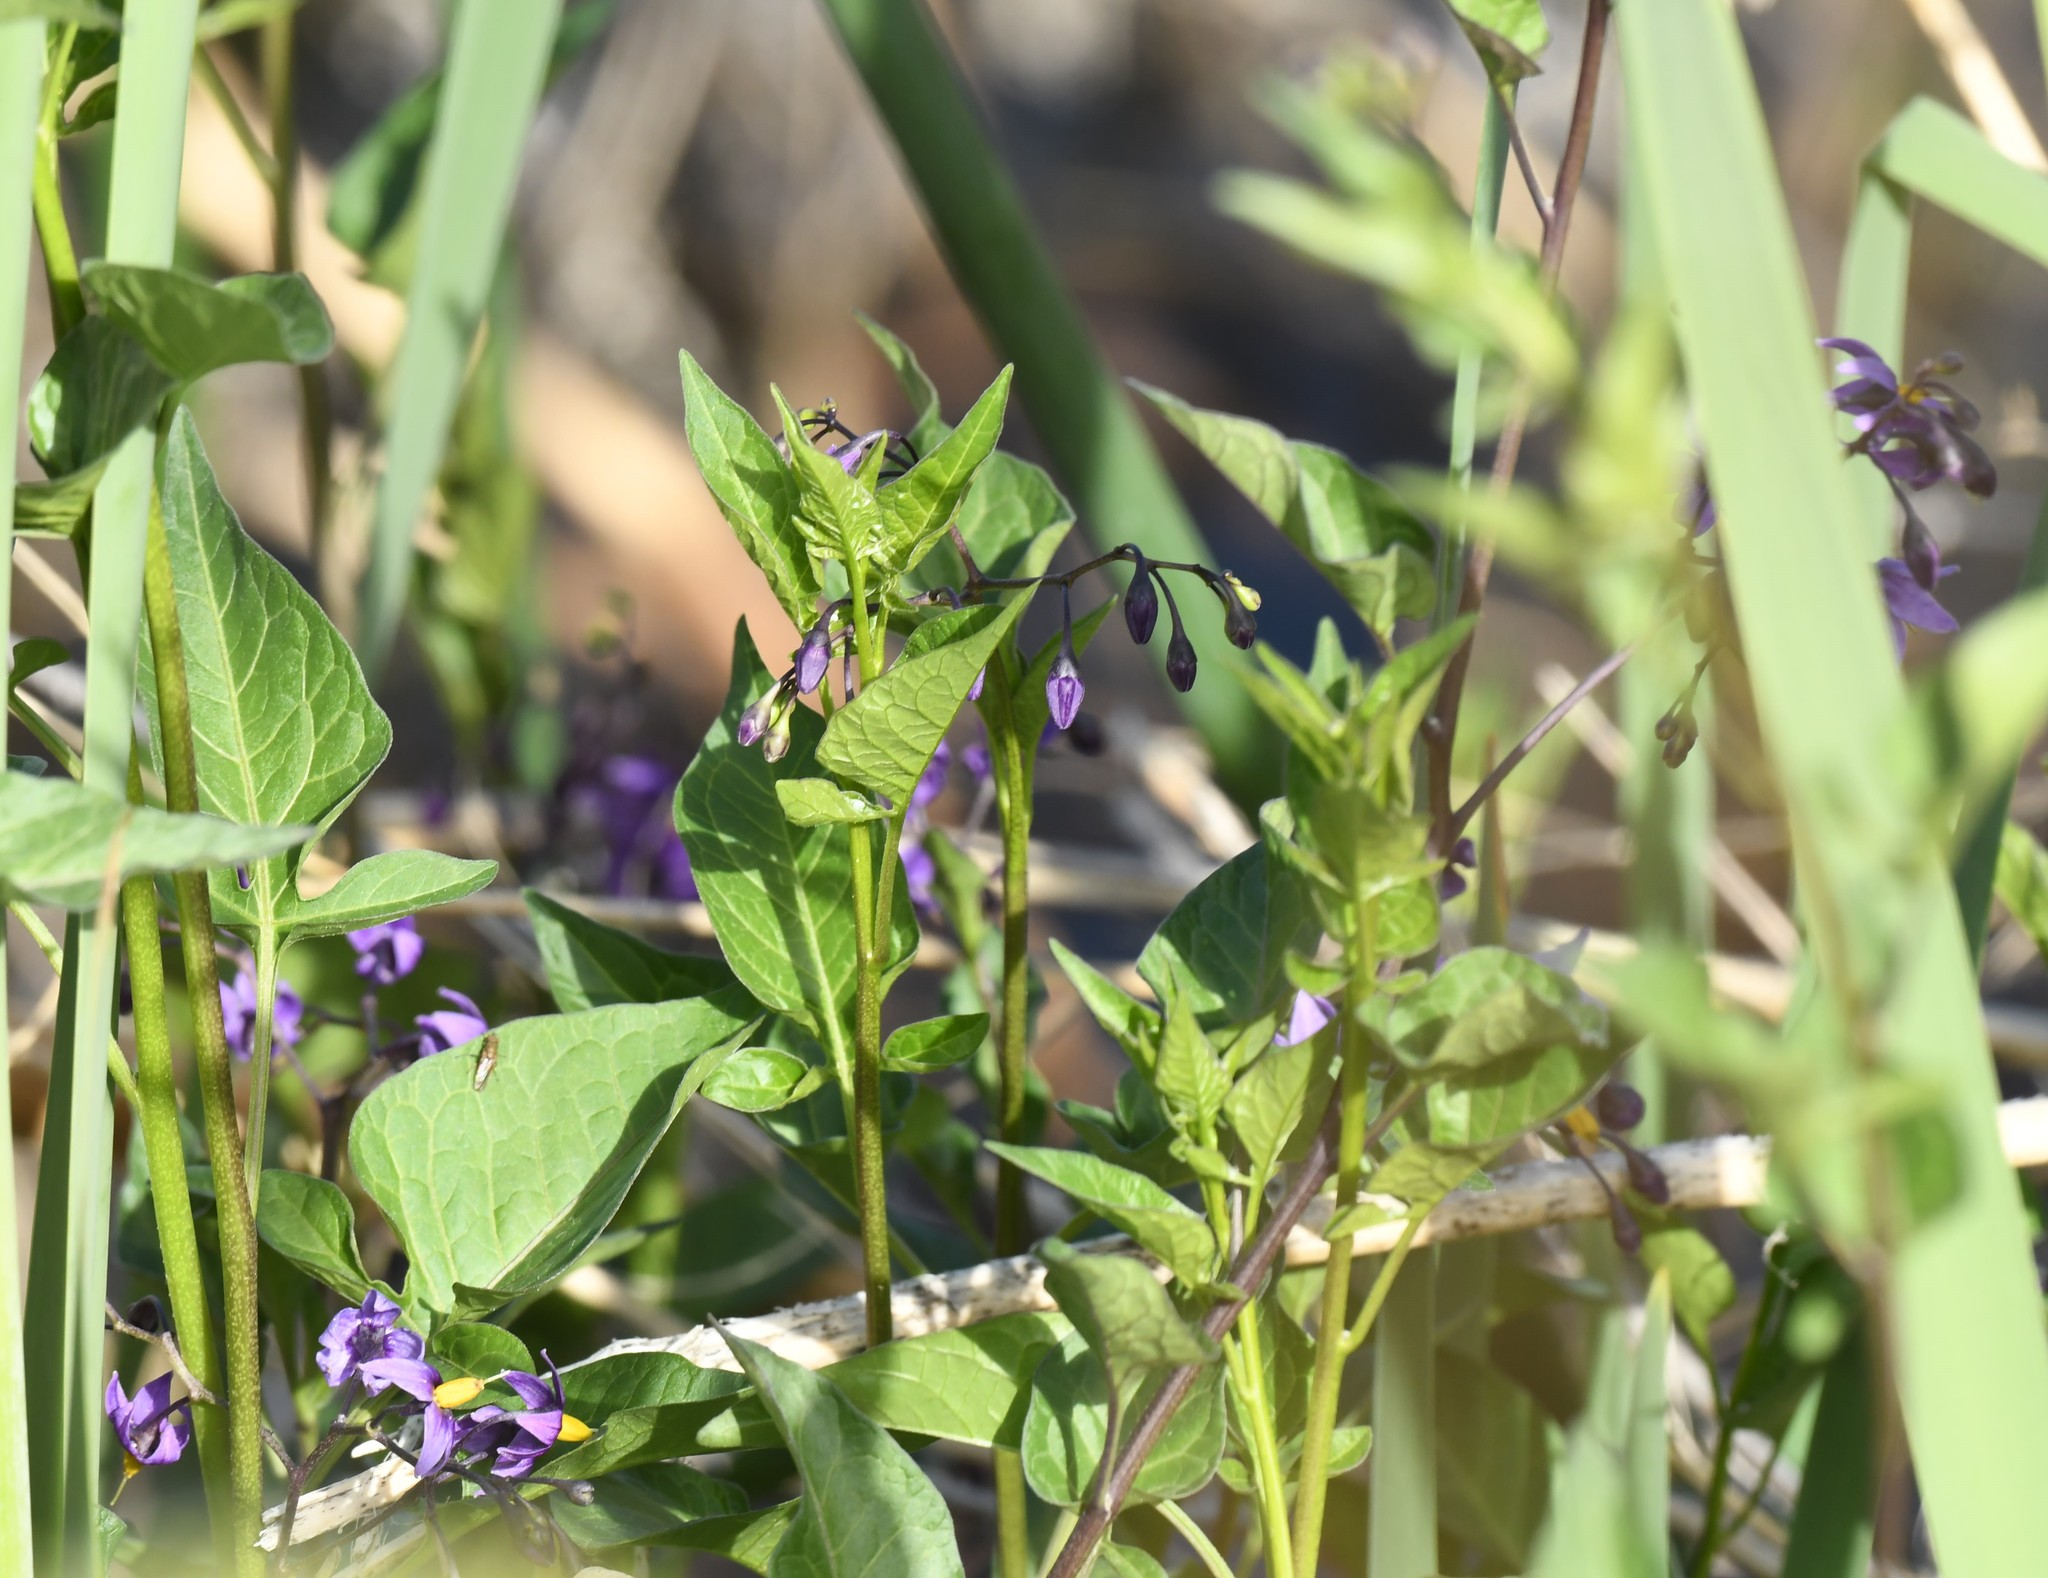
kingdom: Plantae
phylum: Tracheophyta
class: Magnoliopsida
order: Solanales
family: Solanaceae
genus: Solanum
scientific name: Solanum dulcamara
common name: Climbing nightshade
